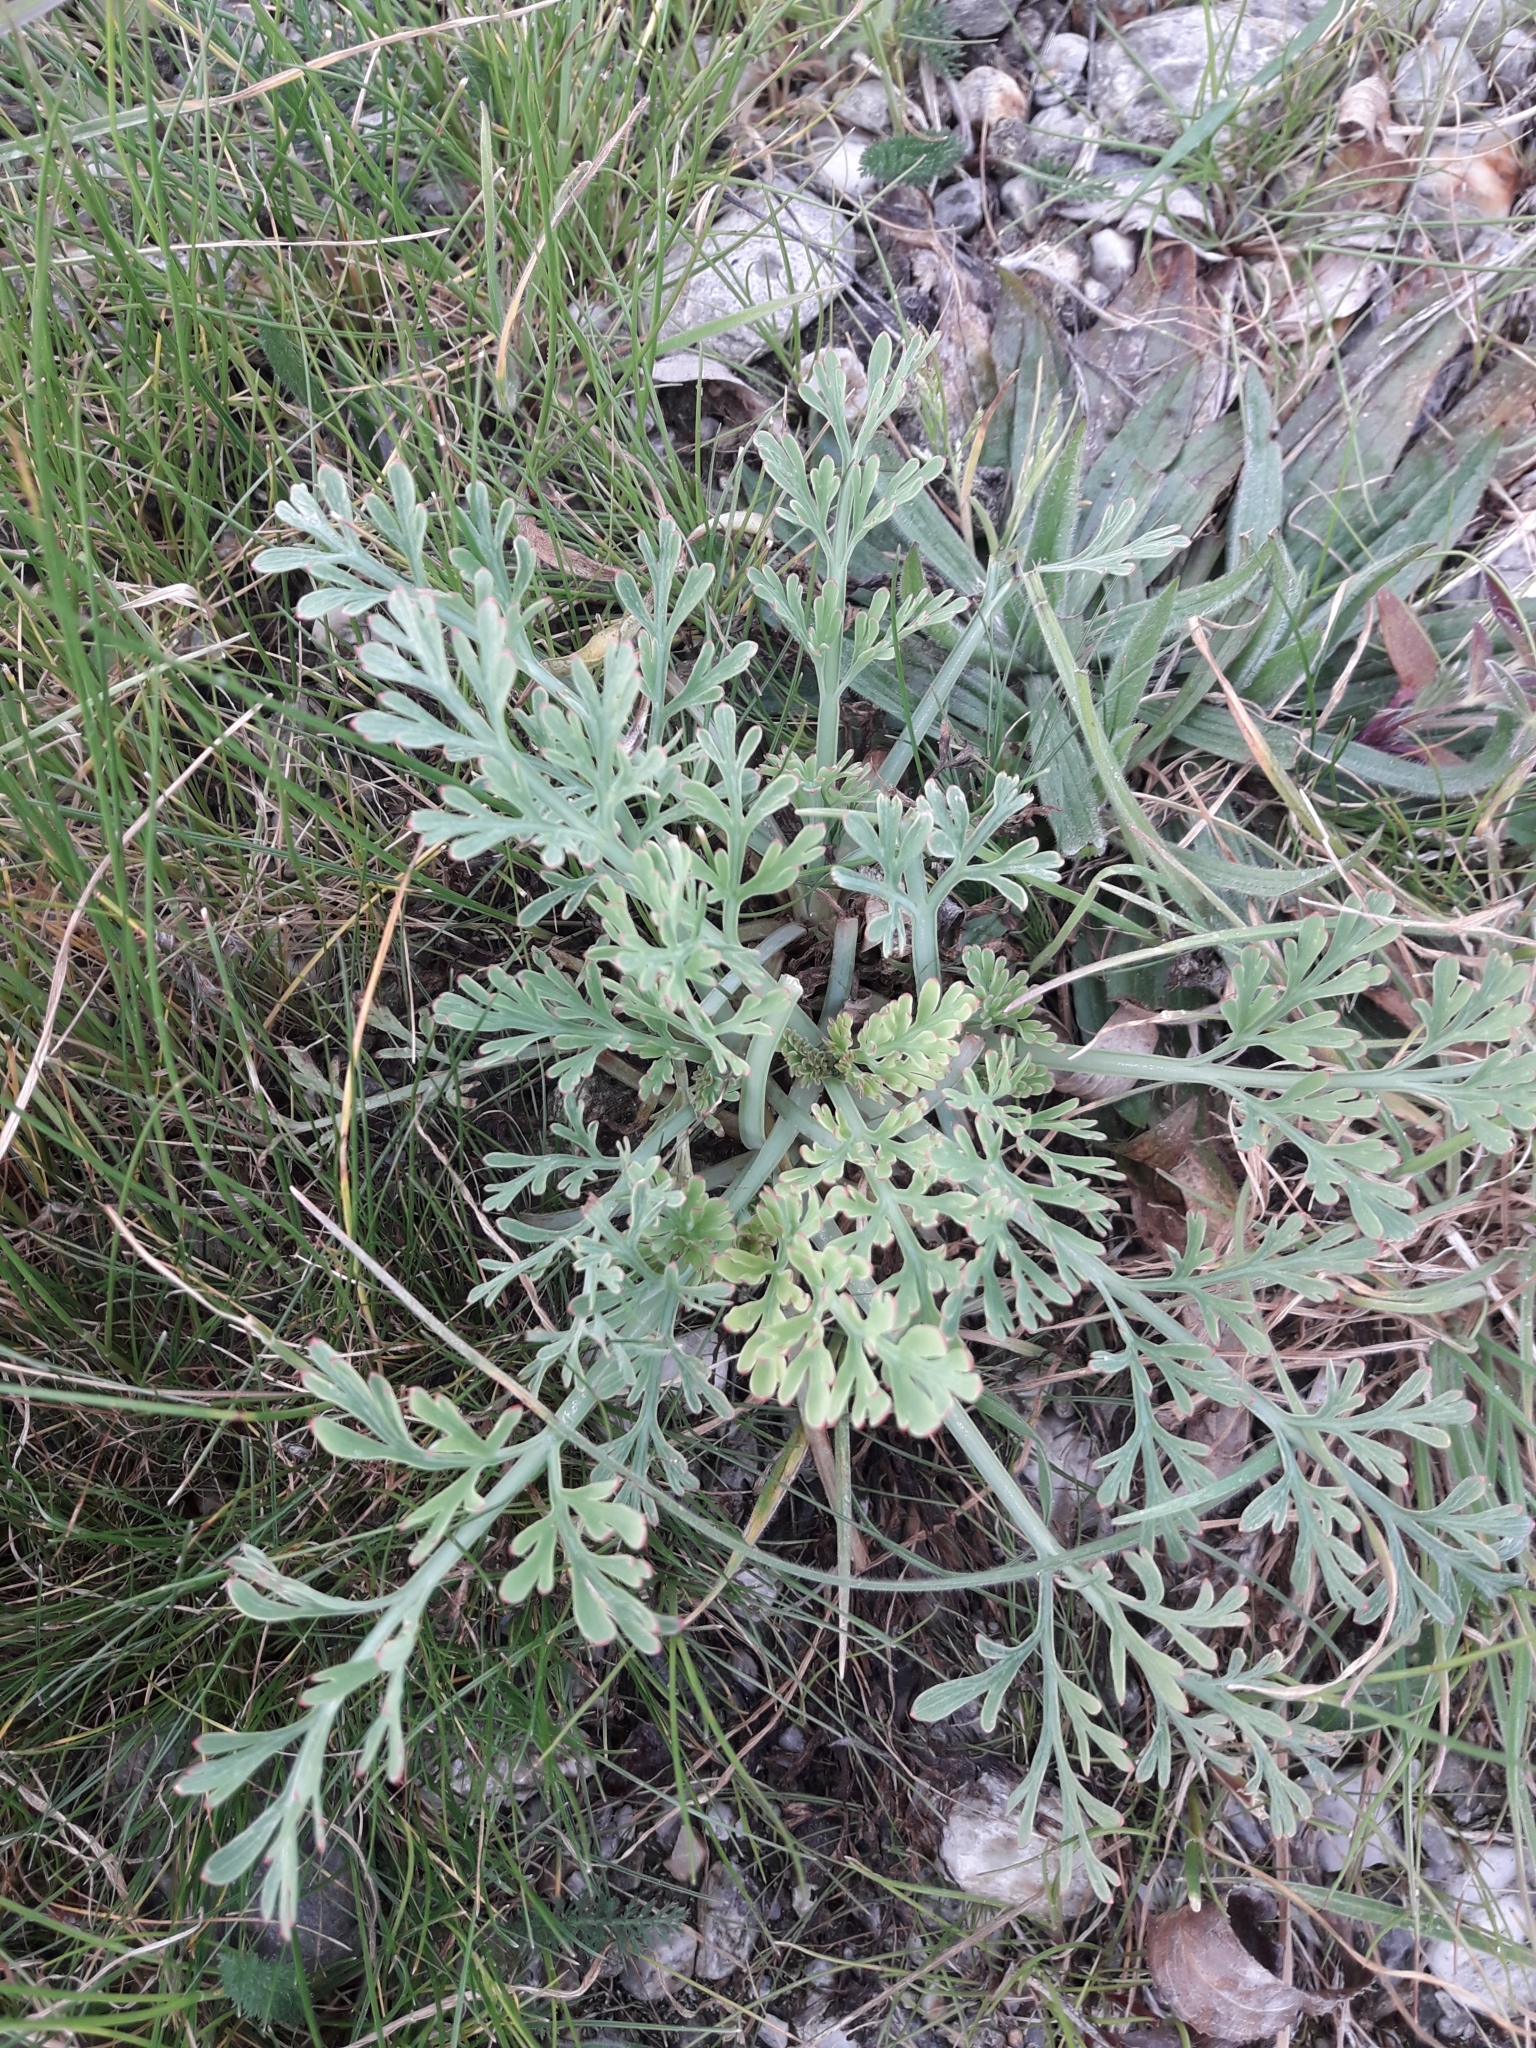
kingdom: Plantae
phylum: Tracheophyta
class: Magnoliopsida
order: Ranunculales
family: Papaveraceae
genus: Eschscholzia
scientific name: Eschscholzia californica
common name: California poppy
